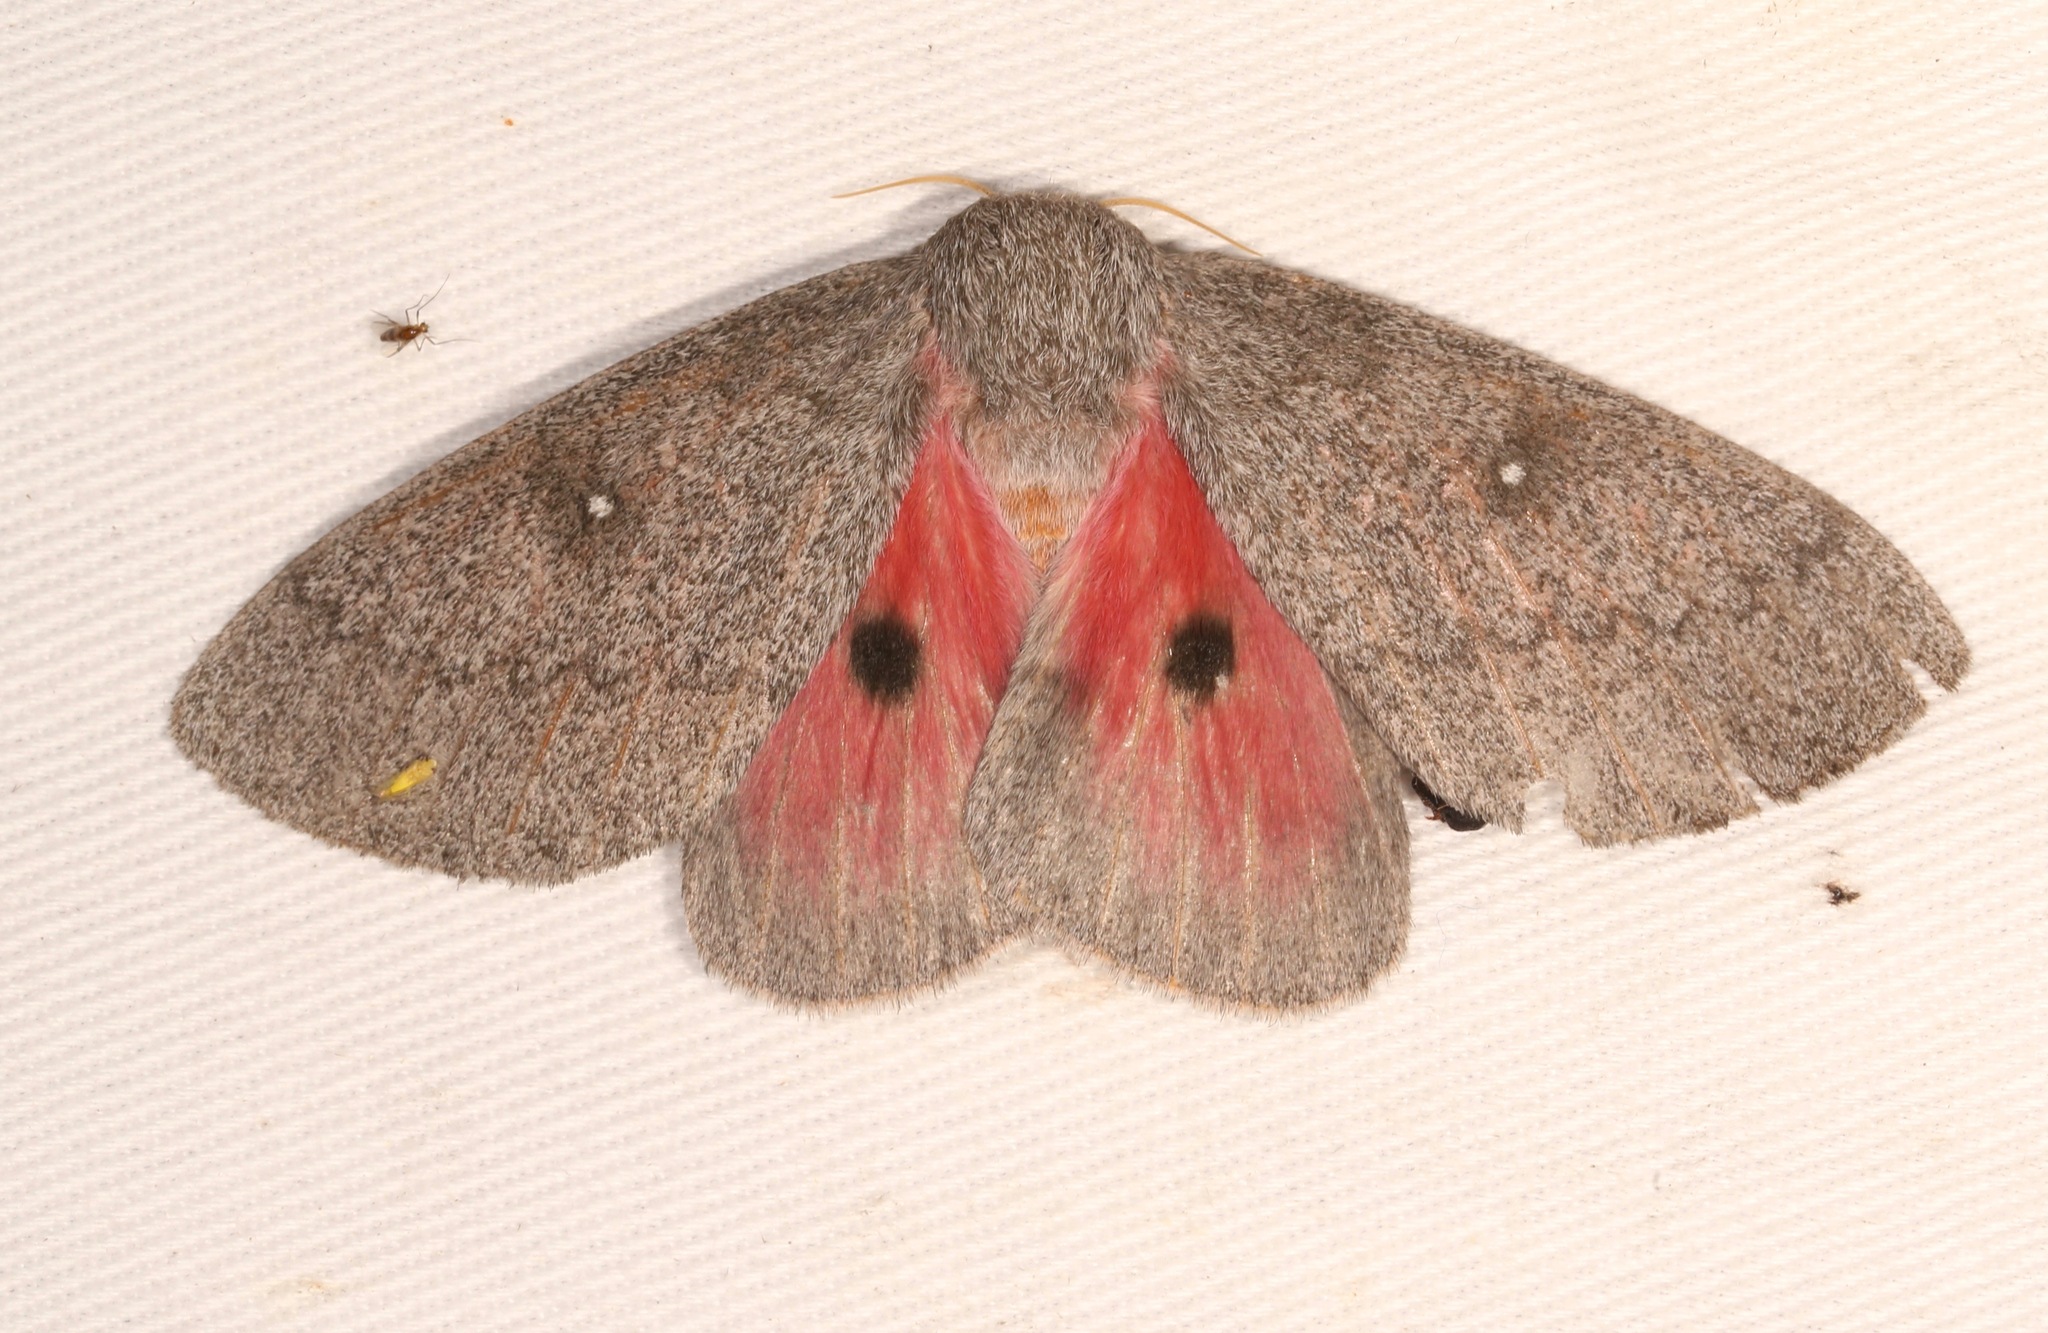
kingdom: Animalia
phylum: Arthropoda
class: Insecta
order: Lepidoptera
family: Saturniidae
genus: Syssphinx
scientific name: Syssphinx hubbardi
